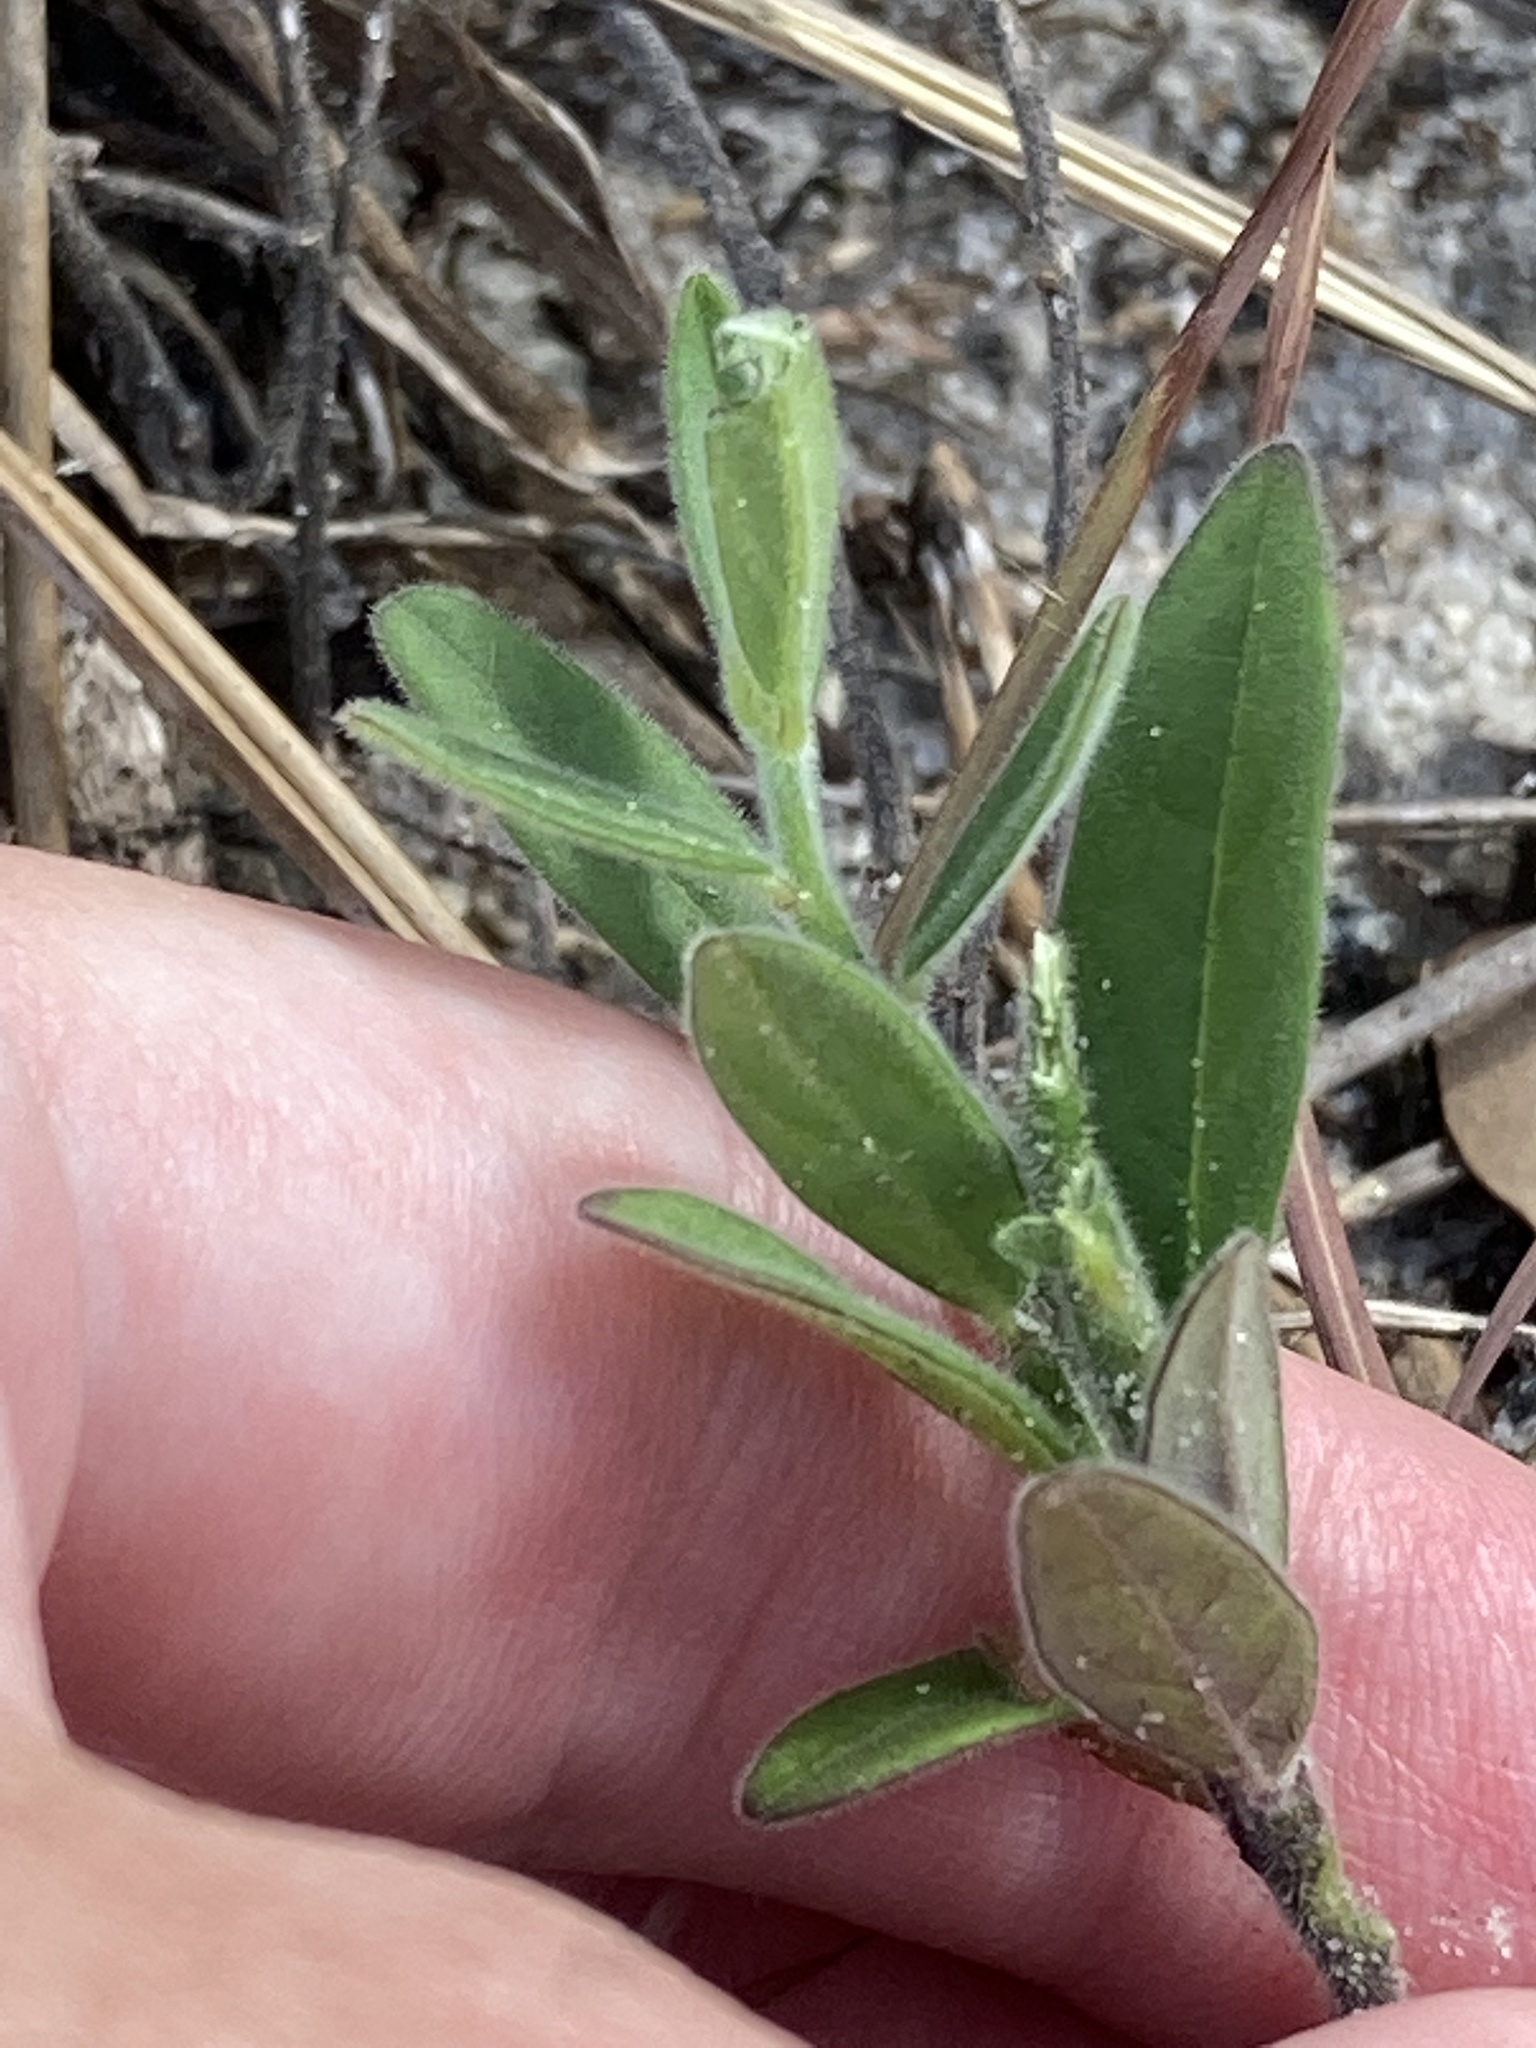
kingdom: Plantae
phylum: Tracheophyta
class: Magnoliopsida
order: Aquifoliales
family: Aquifoliaceae
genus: Ilex
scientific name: Ilex glabra
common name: Bitter gallberry
